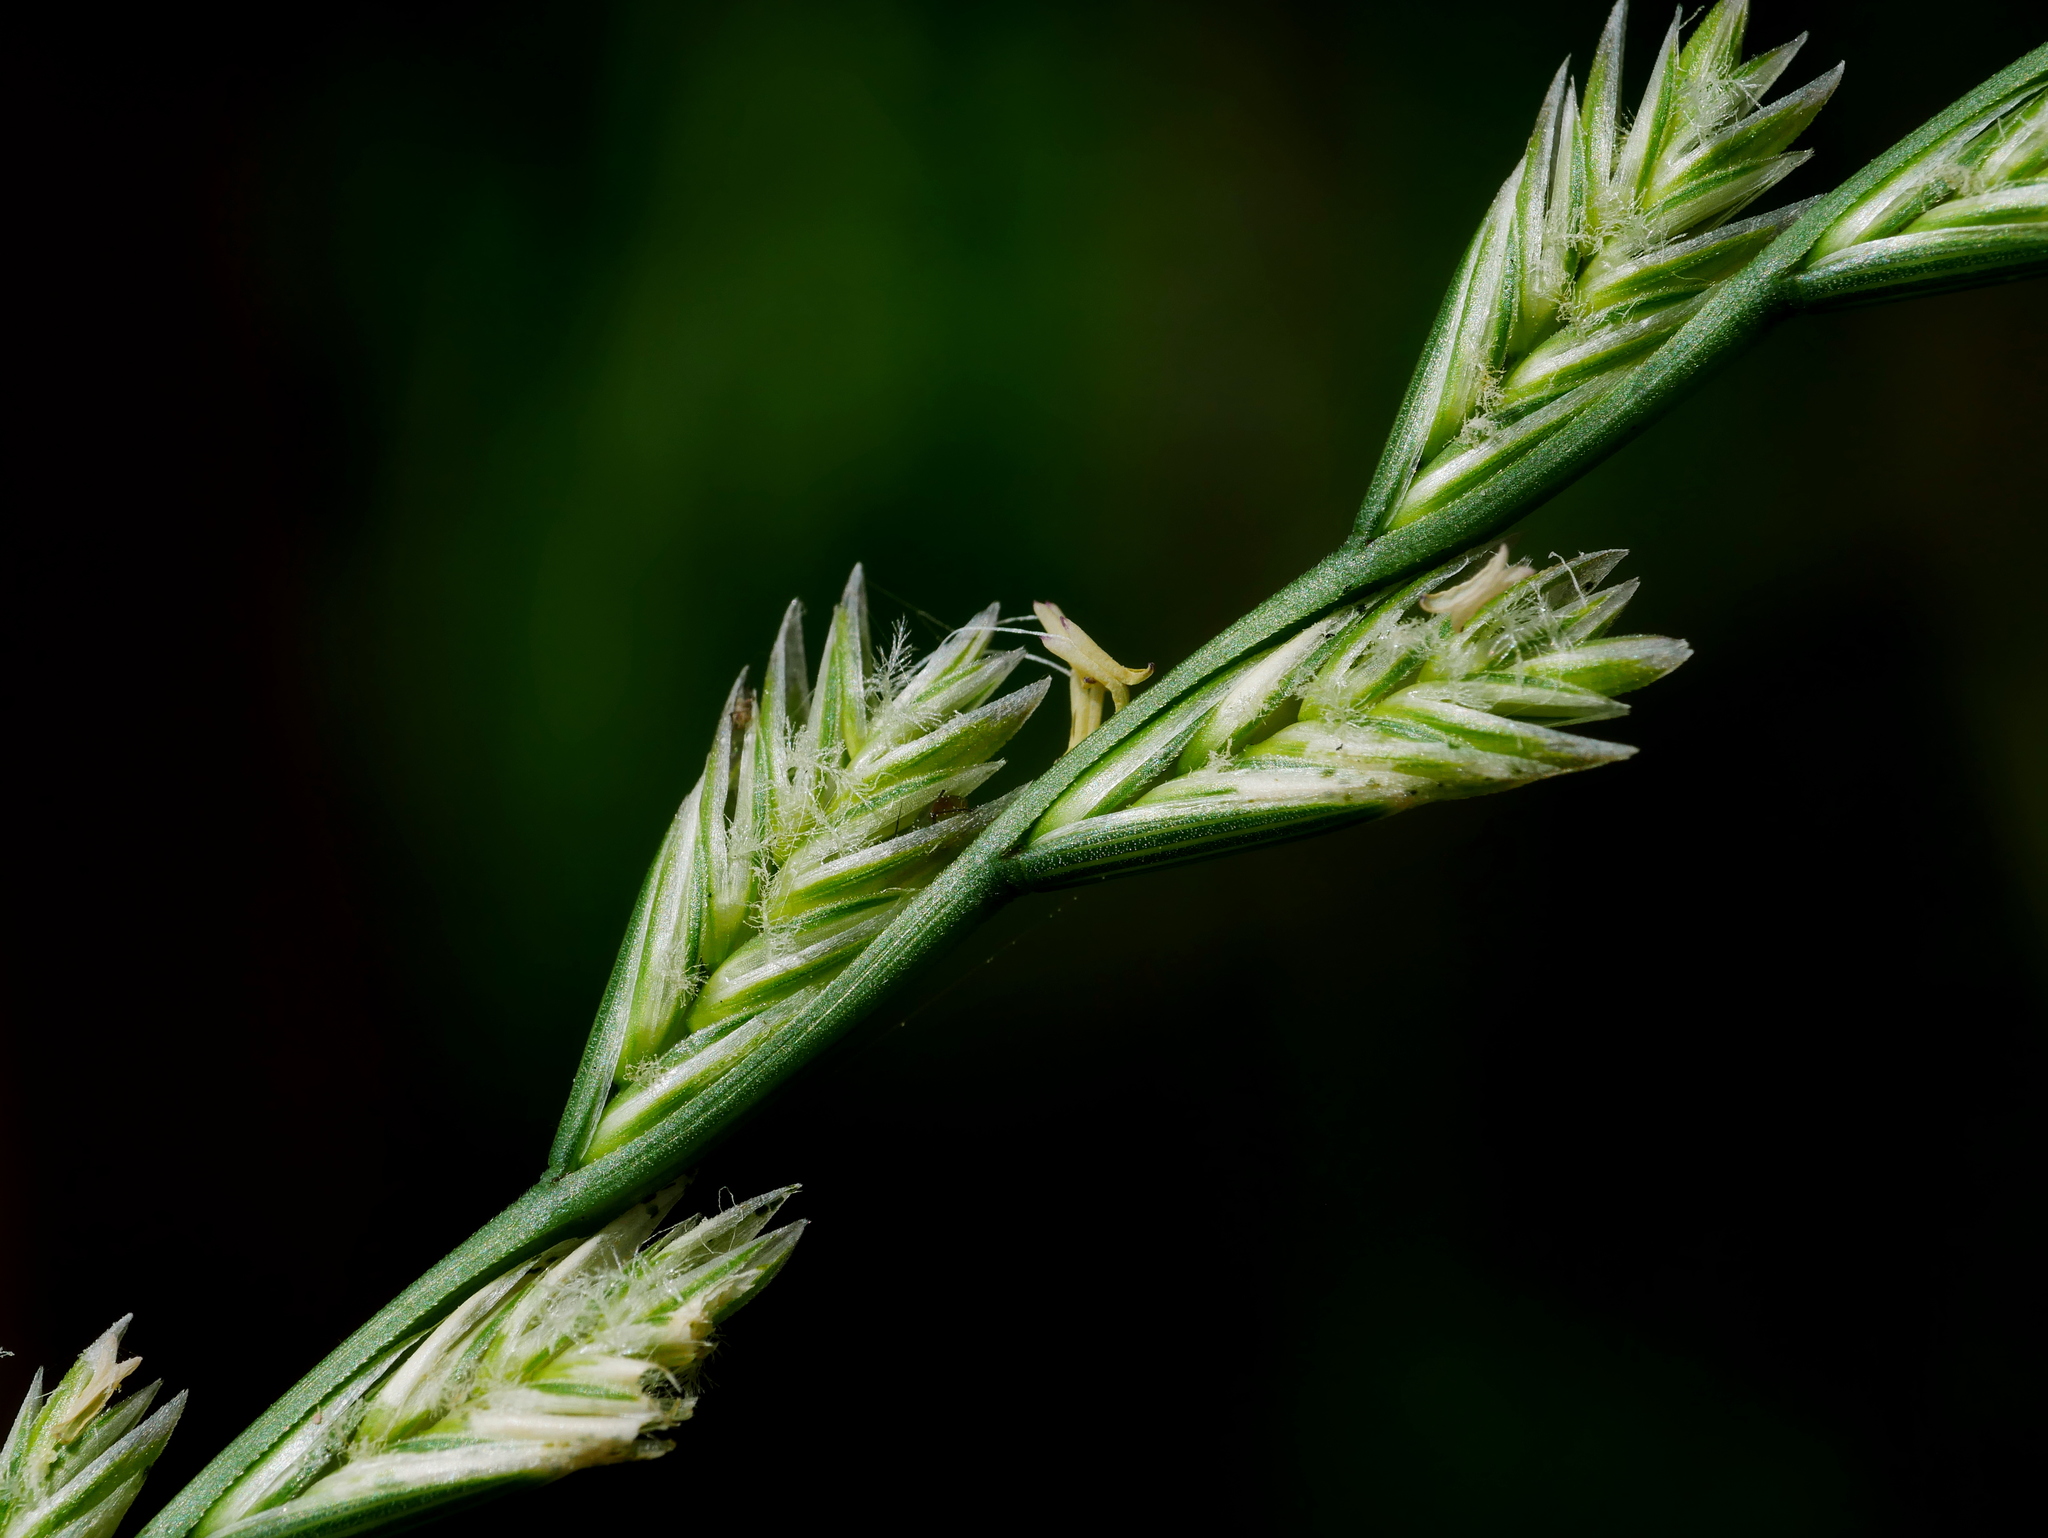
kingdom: Plantae
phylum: Tracheophyta
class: Liliopsida
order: Poales
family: Poaceae
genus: Lolium
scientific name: Lolium perenne
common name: Perennial ryegrass
